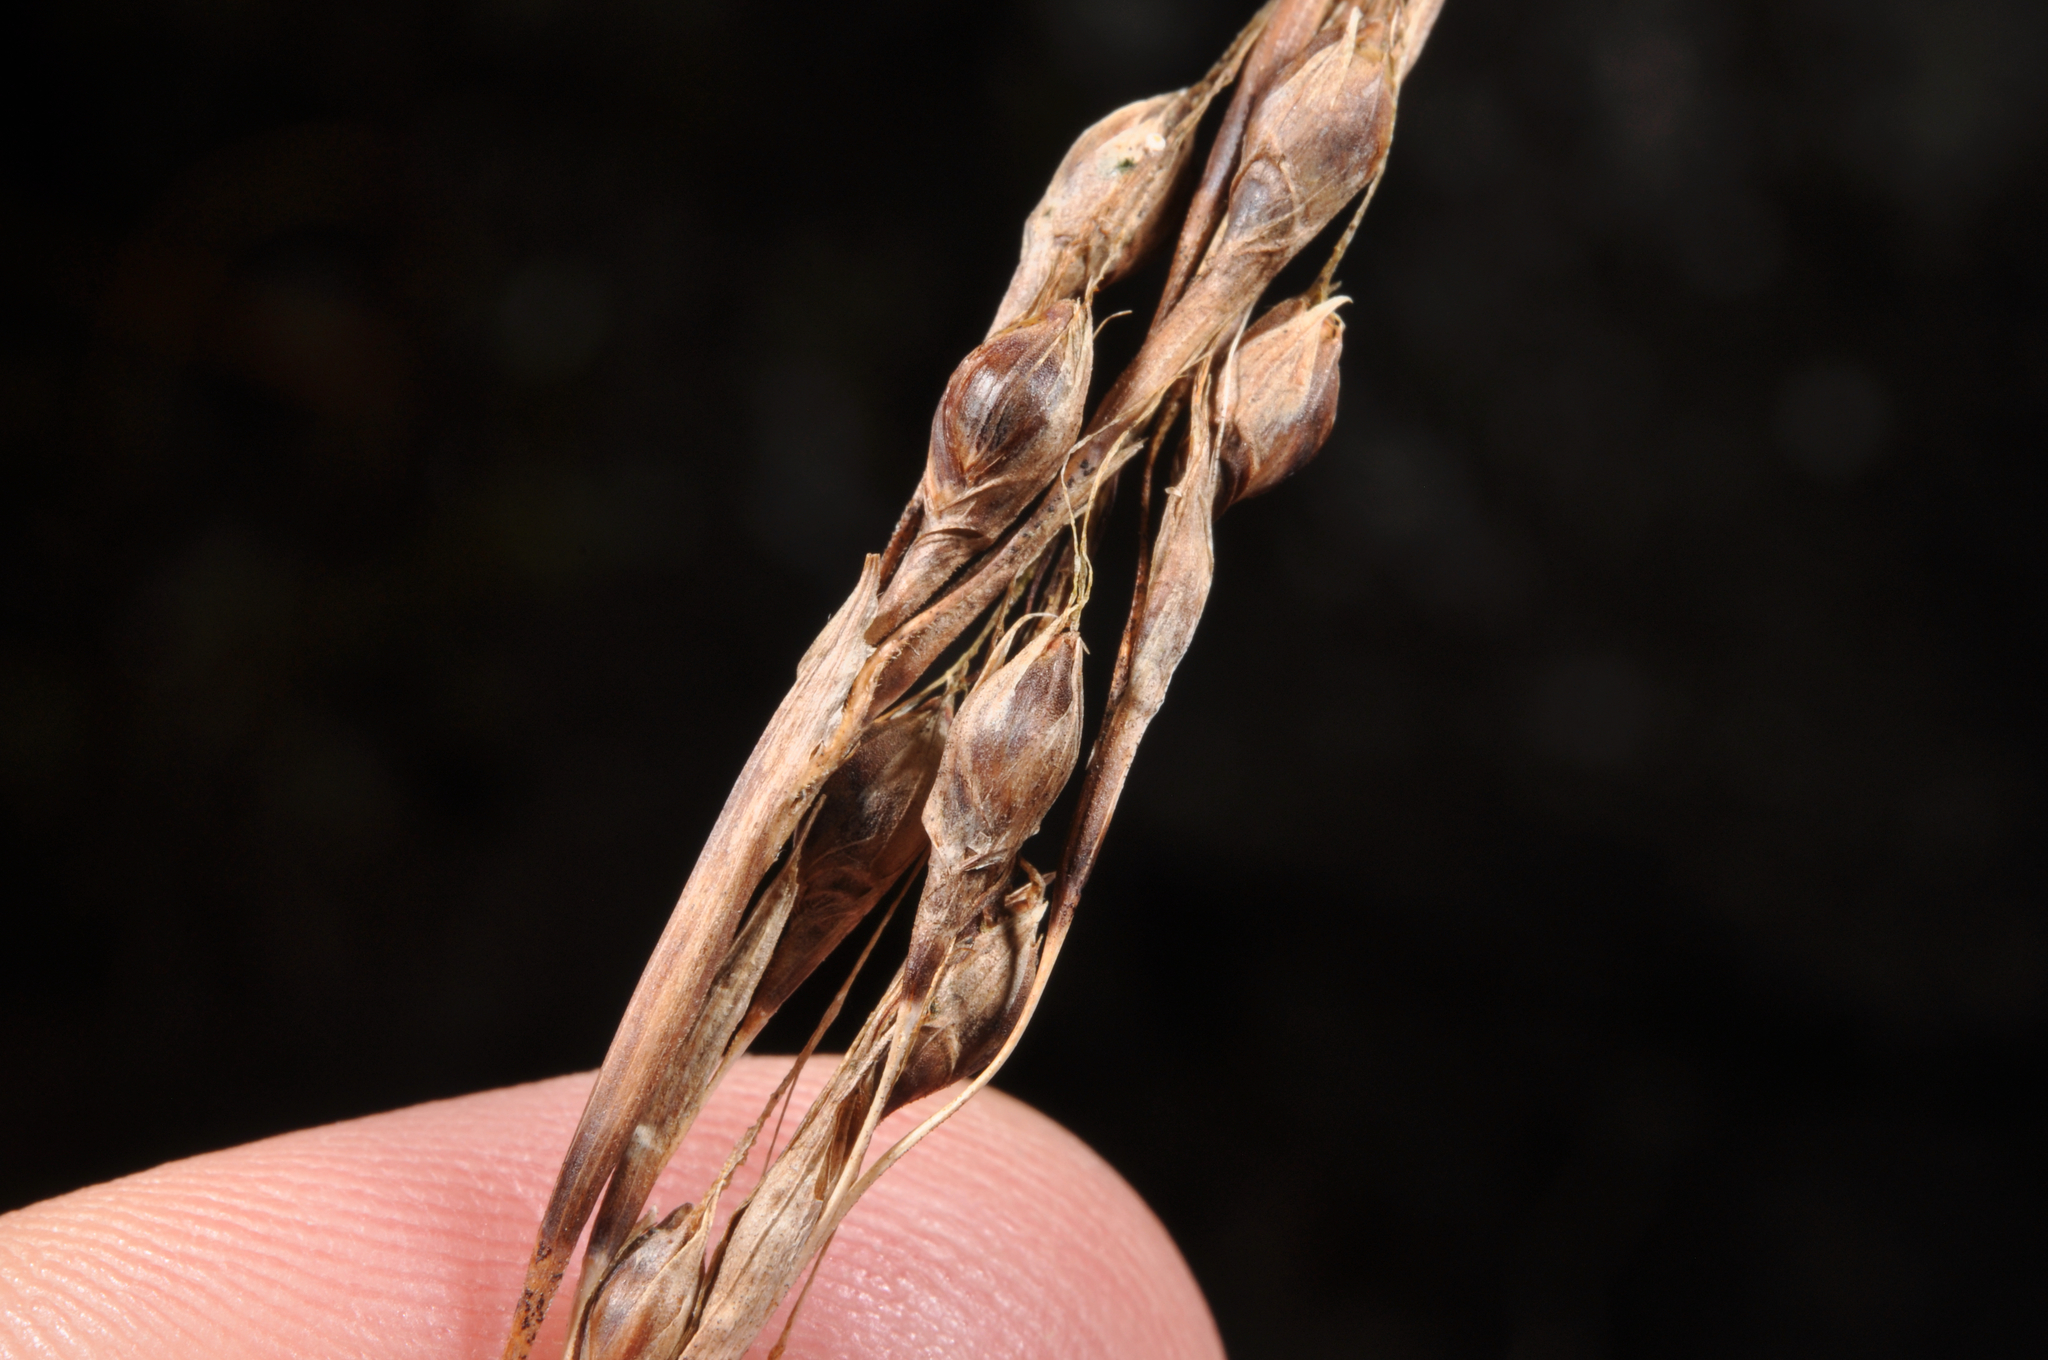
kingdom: Plantae
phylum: Tracheophyta
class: Liliopsida
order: Poales
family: Cyperaceae
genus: Gahnia
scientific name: Gahnia xanthocarpa
